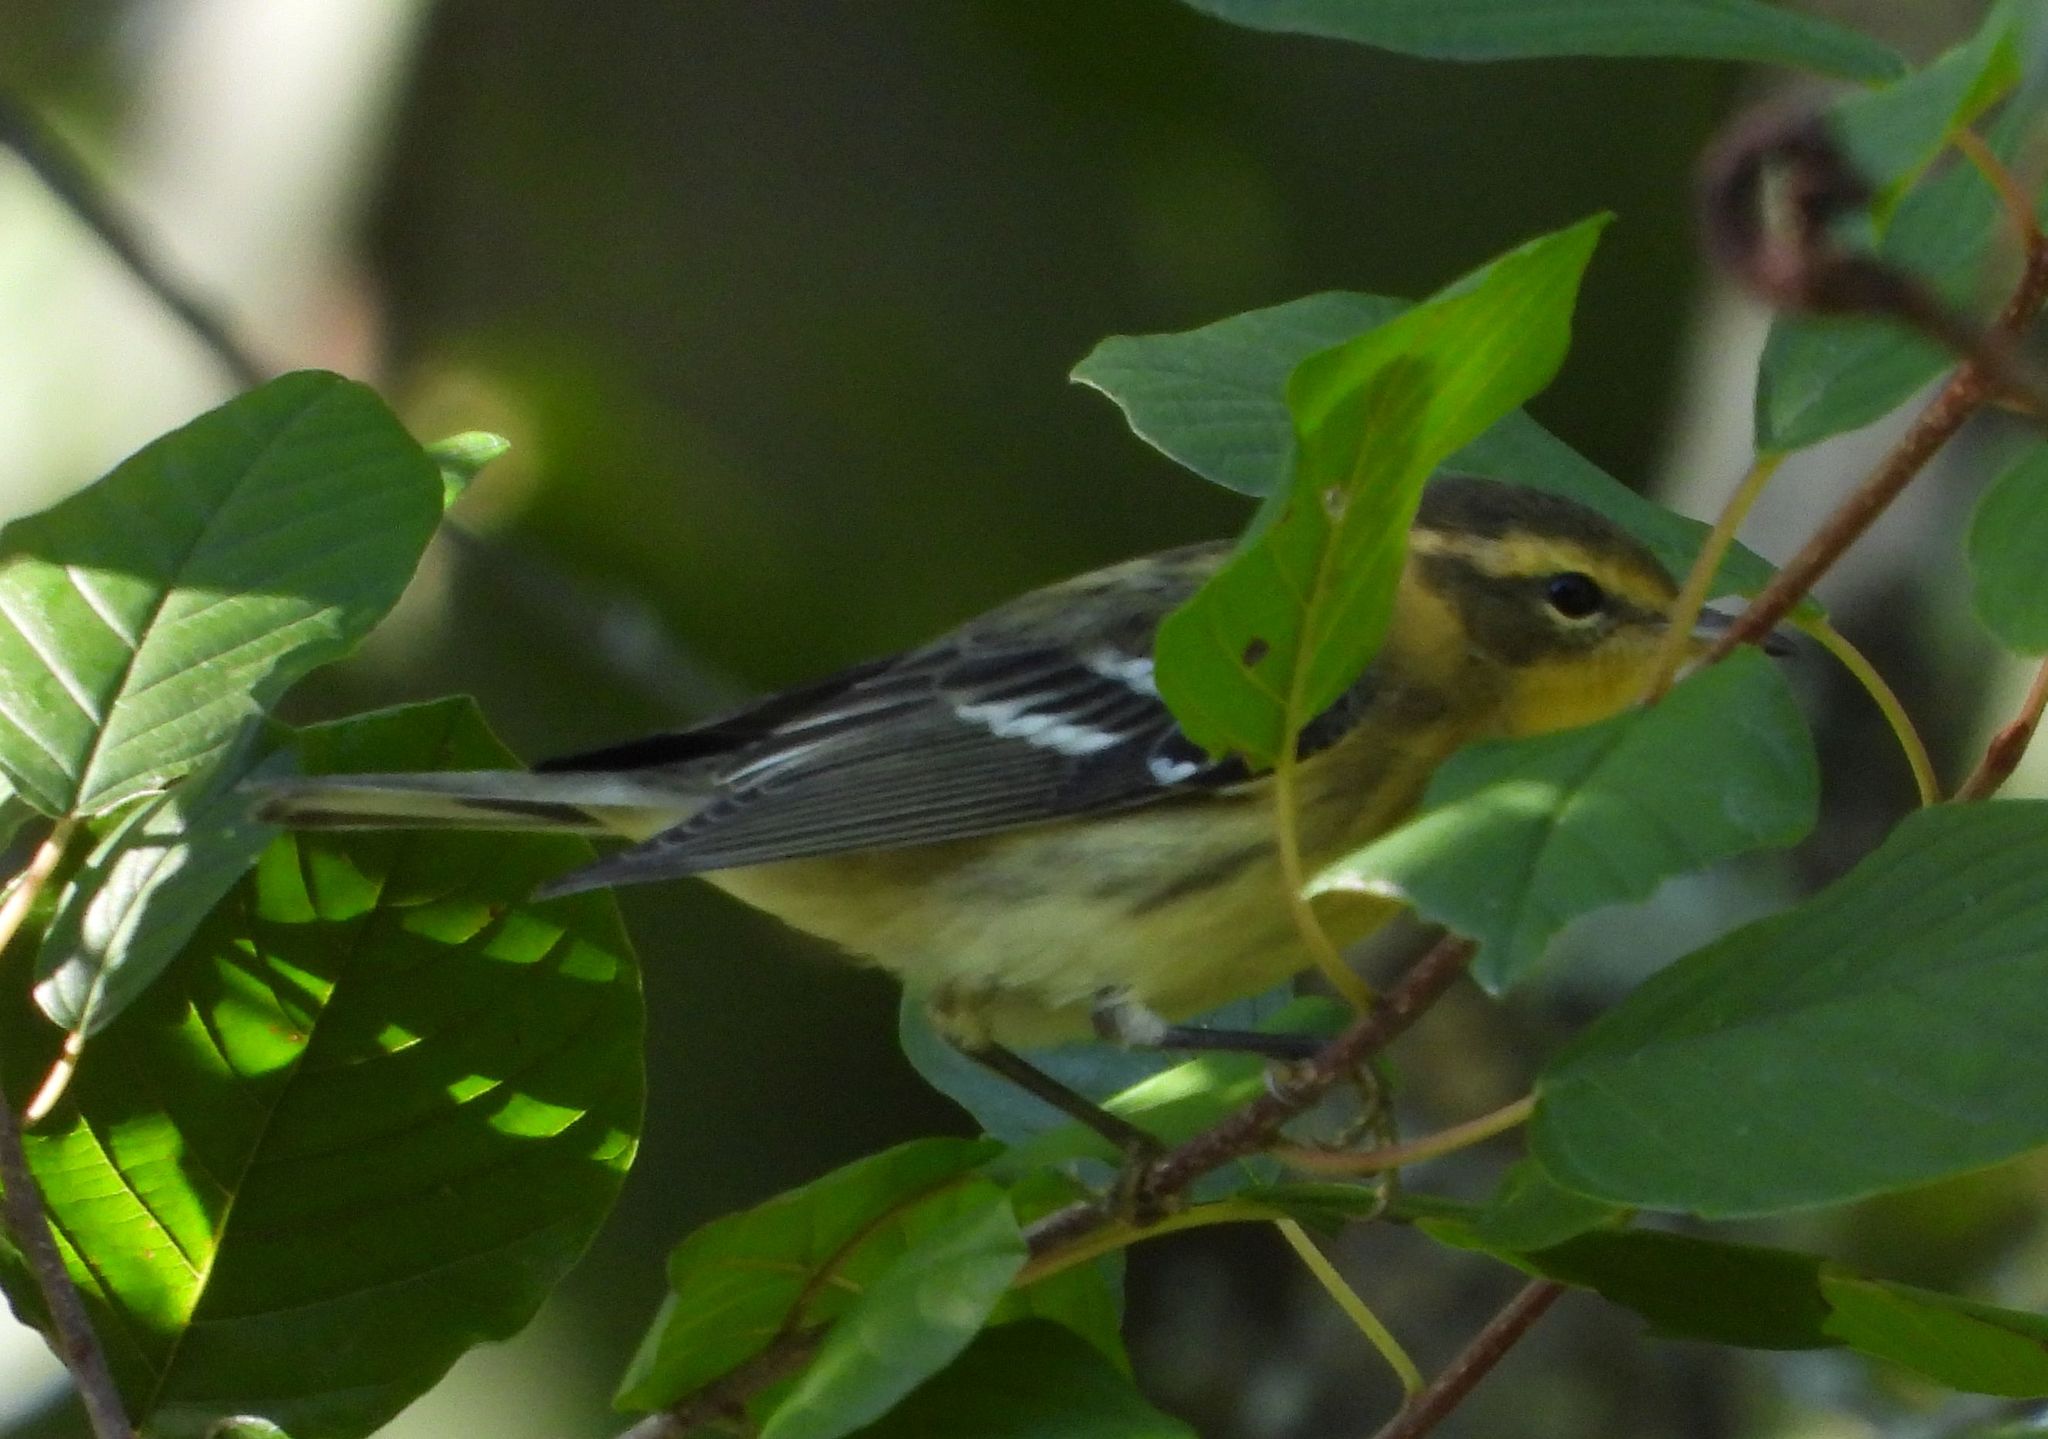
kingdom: Animalia
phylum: Chordata
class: Aves
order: Passeriformes
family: Parulidae
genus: Setophaga
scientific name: Setophaga fusca
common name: Blackburnian warbler
